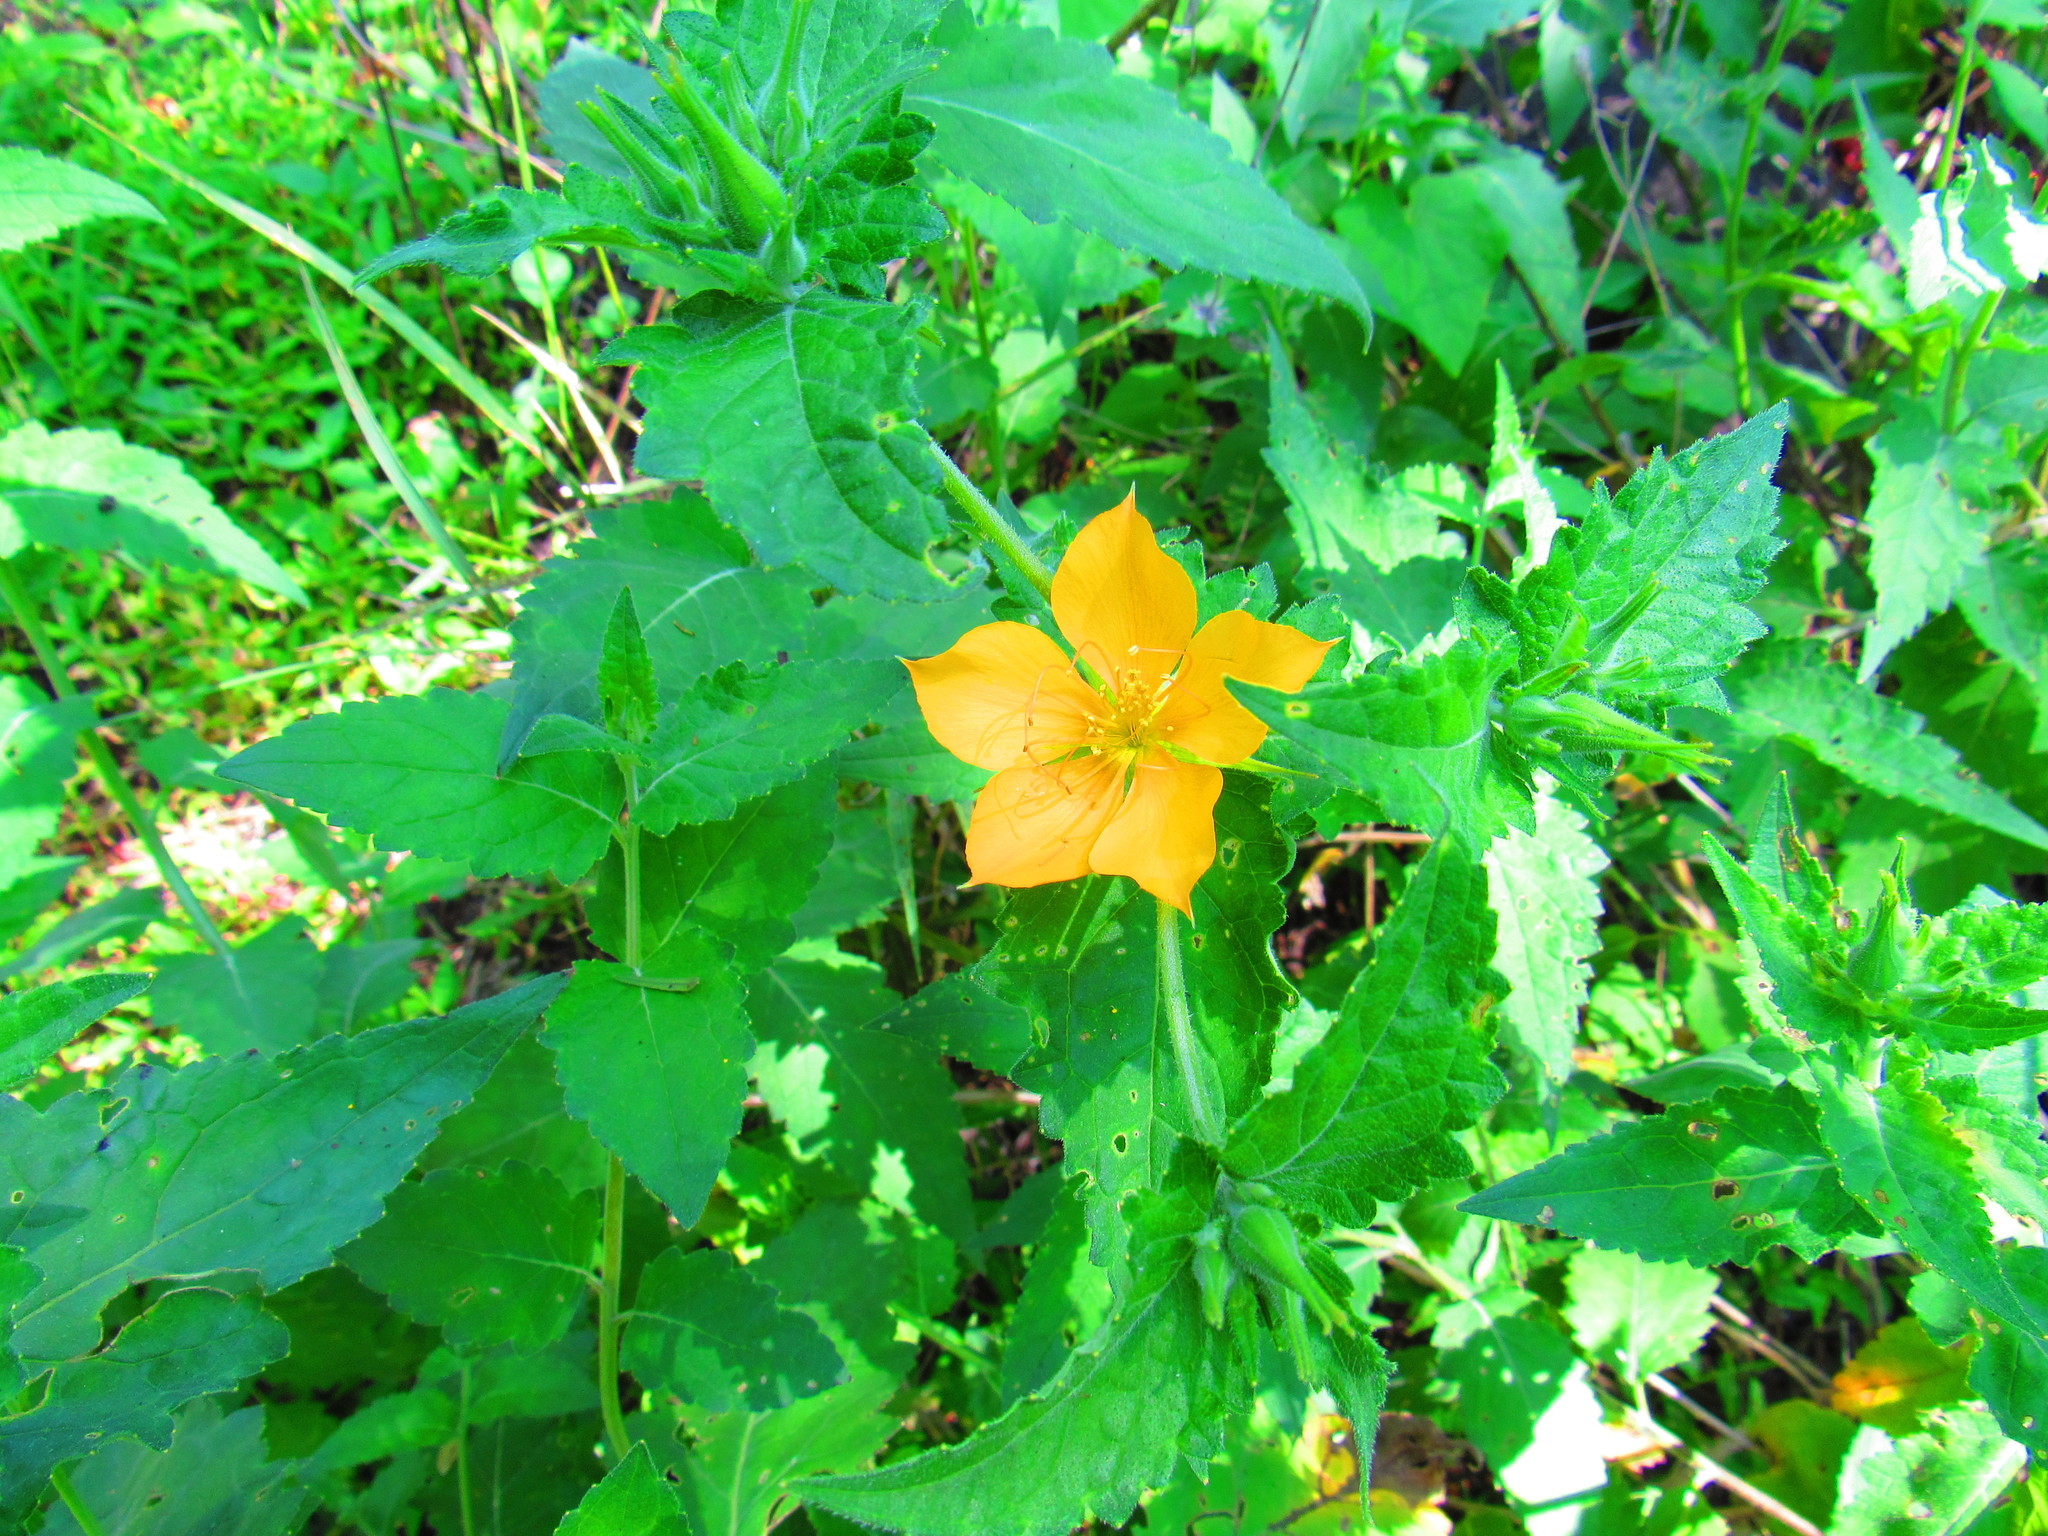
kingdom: Plantae
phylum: Tracheophyta
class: Magnoliopsida
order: Cornales
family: Loasaceae
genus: Mentzelia
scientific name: Mentzelia hispida
